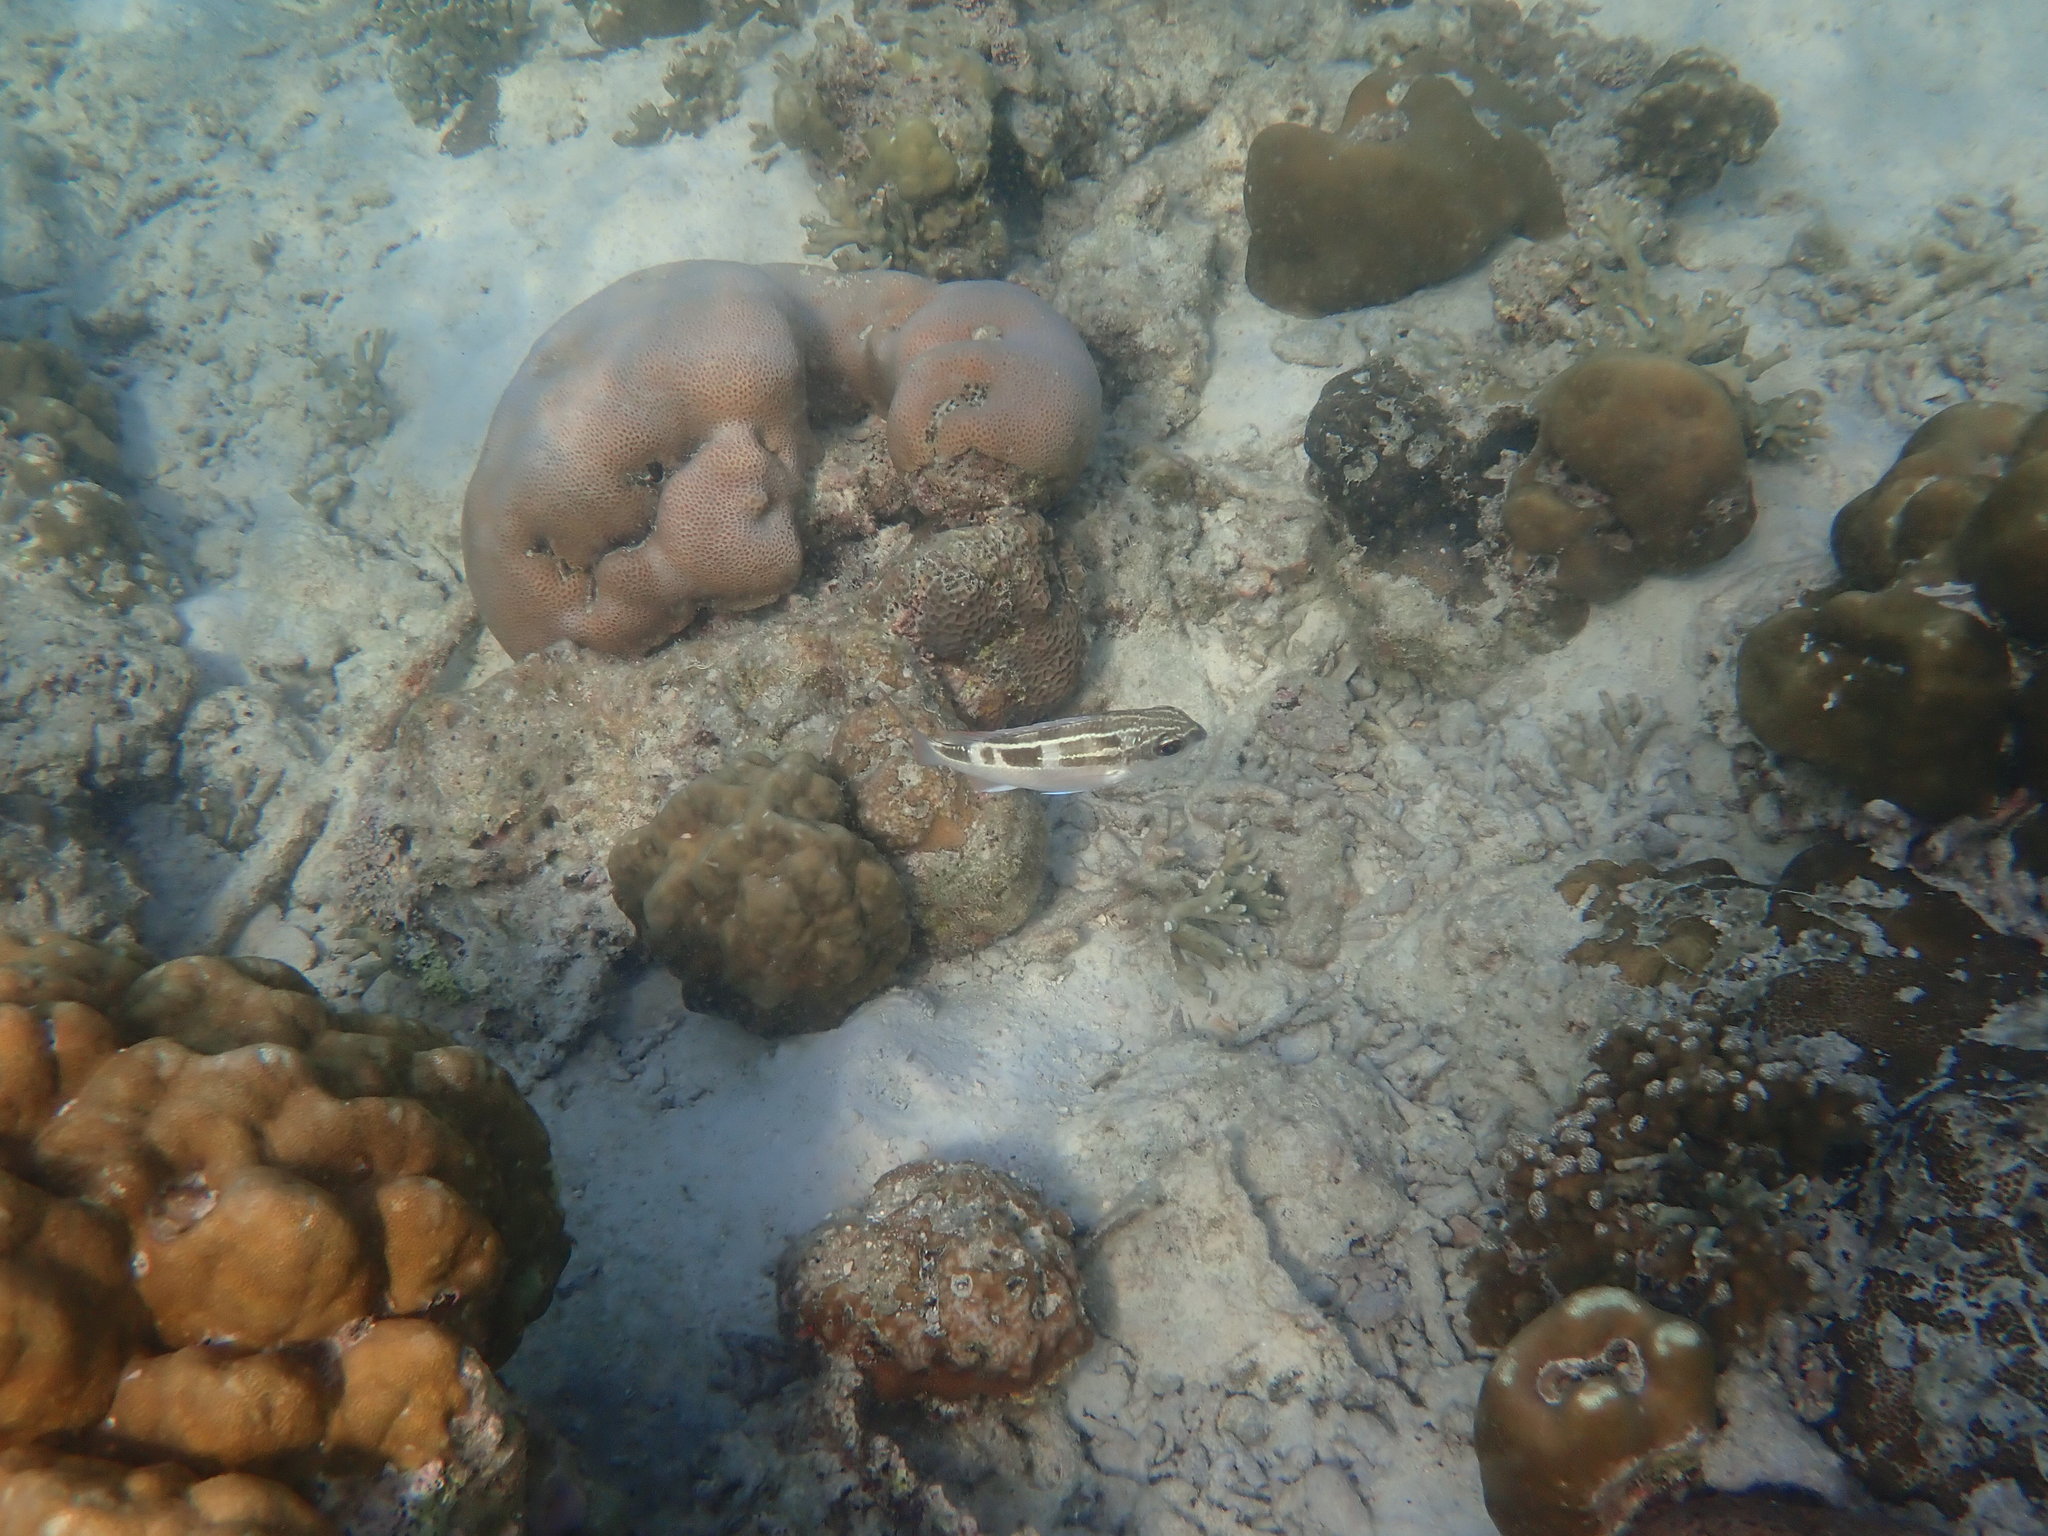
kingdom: Animalia
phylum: Chordata
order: Perciformes
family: Nemipteridae
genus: Scolopsis
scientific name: Scolopsis lineata
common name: Striped monocle bream
